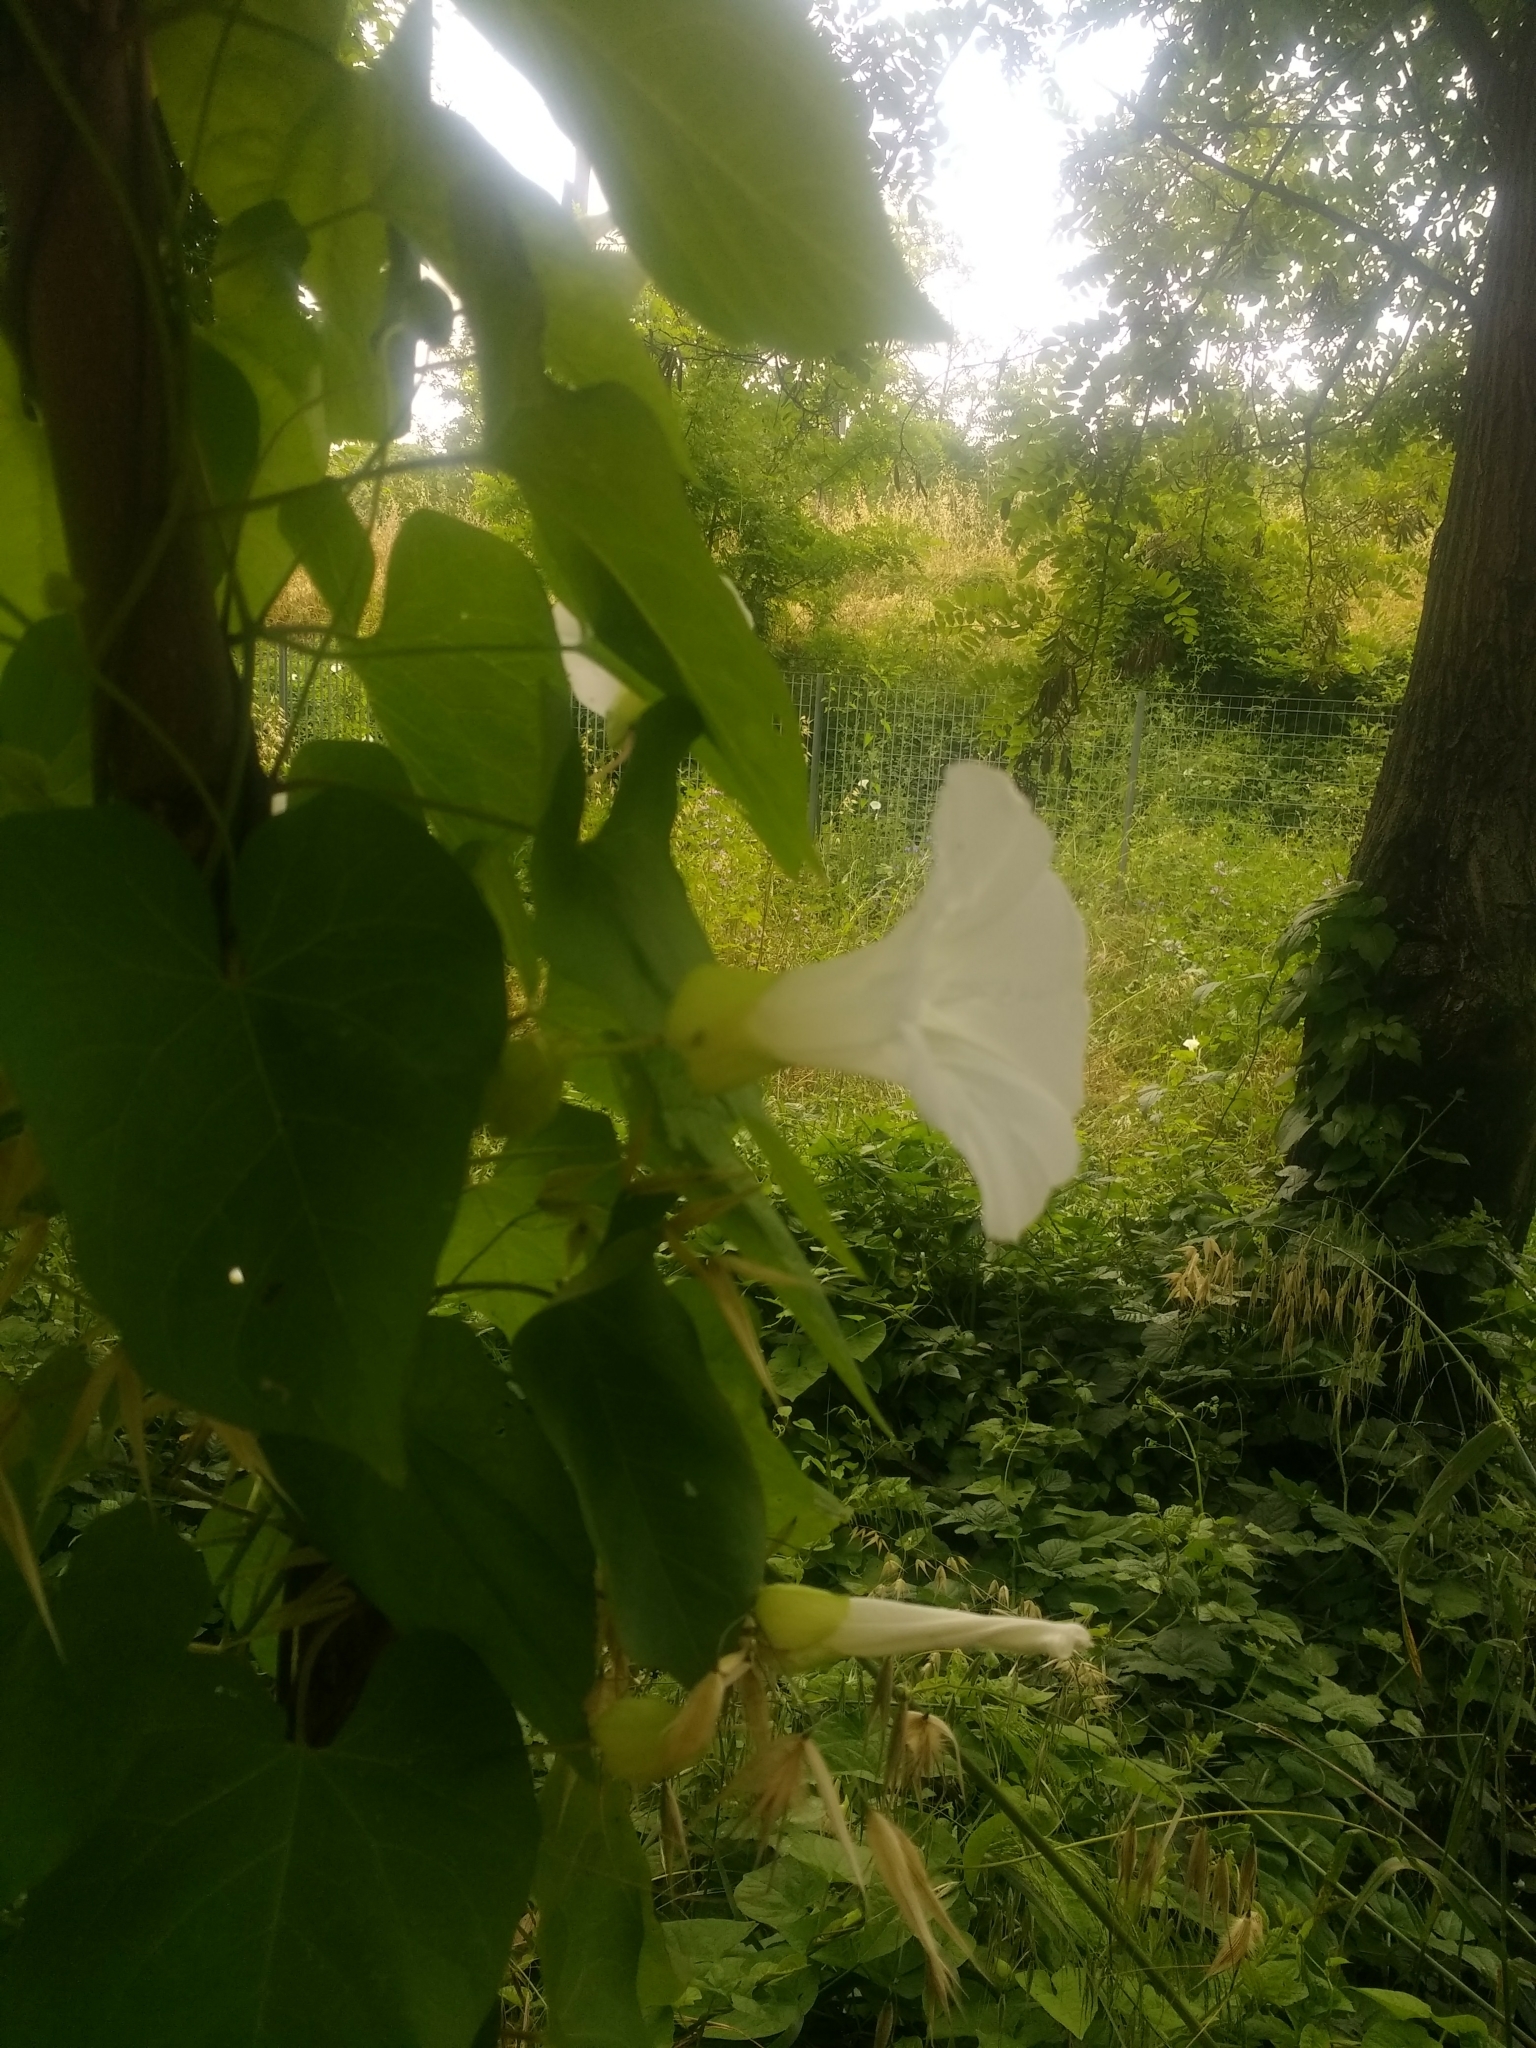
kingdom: Plantae
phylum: Tracheophyta
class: Magnoliopsida
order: Solanales
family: Convolvulaceae
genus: Calystegia
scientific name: Calystegia silvatica
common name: Large bindweed
